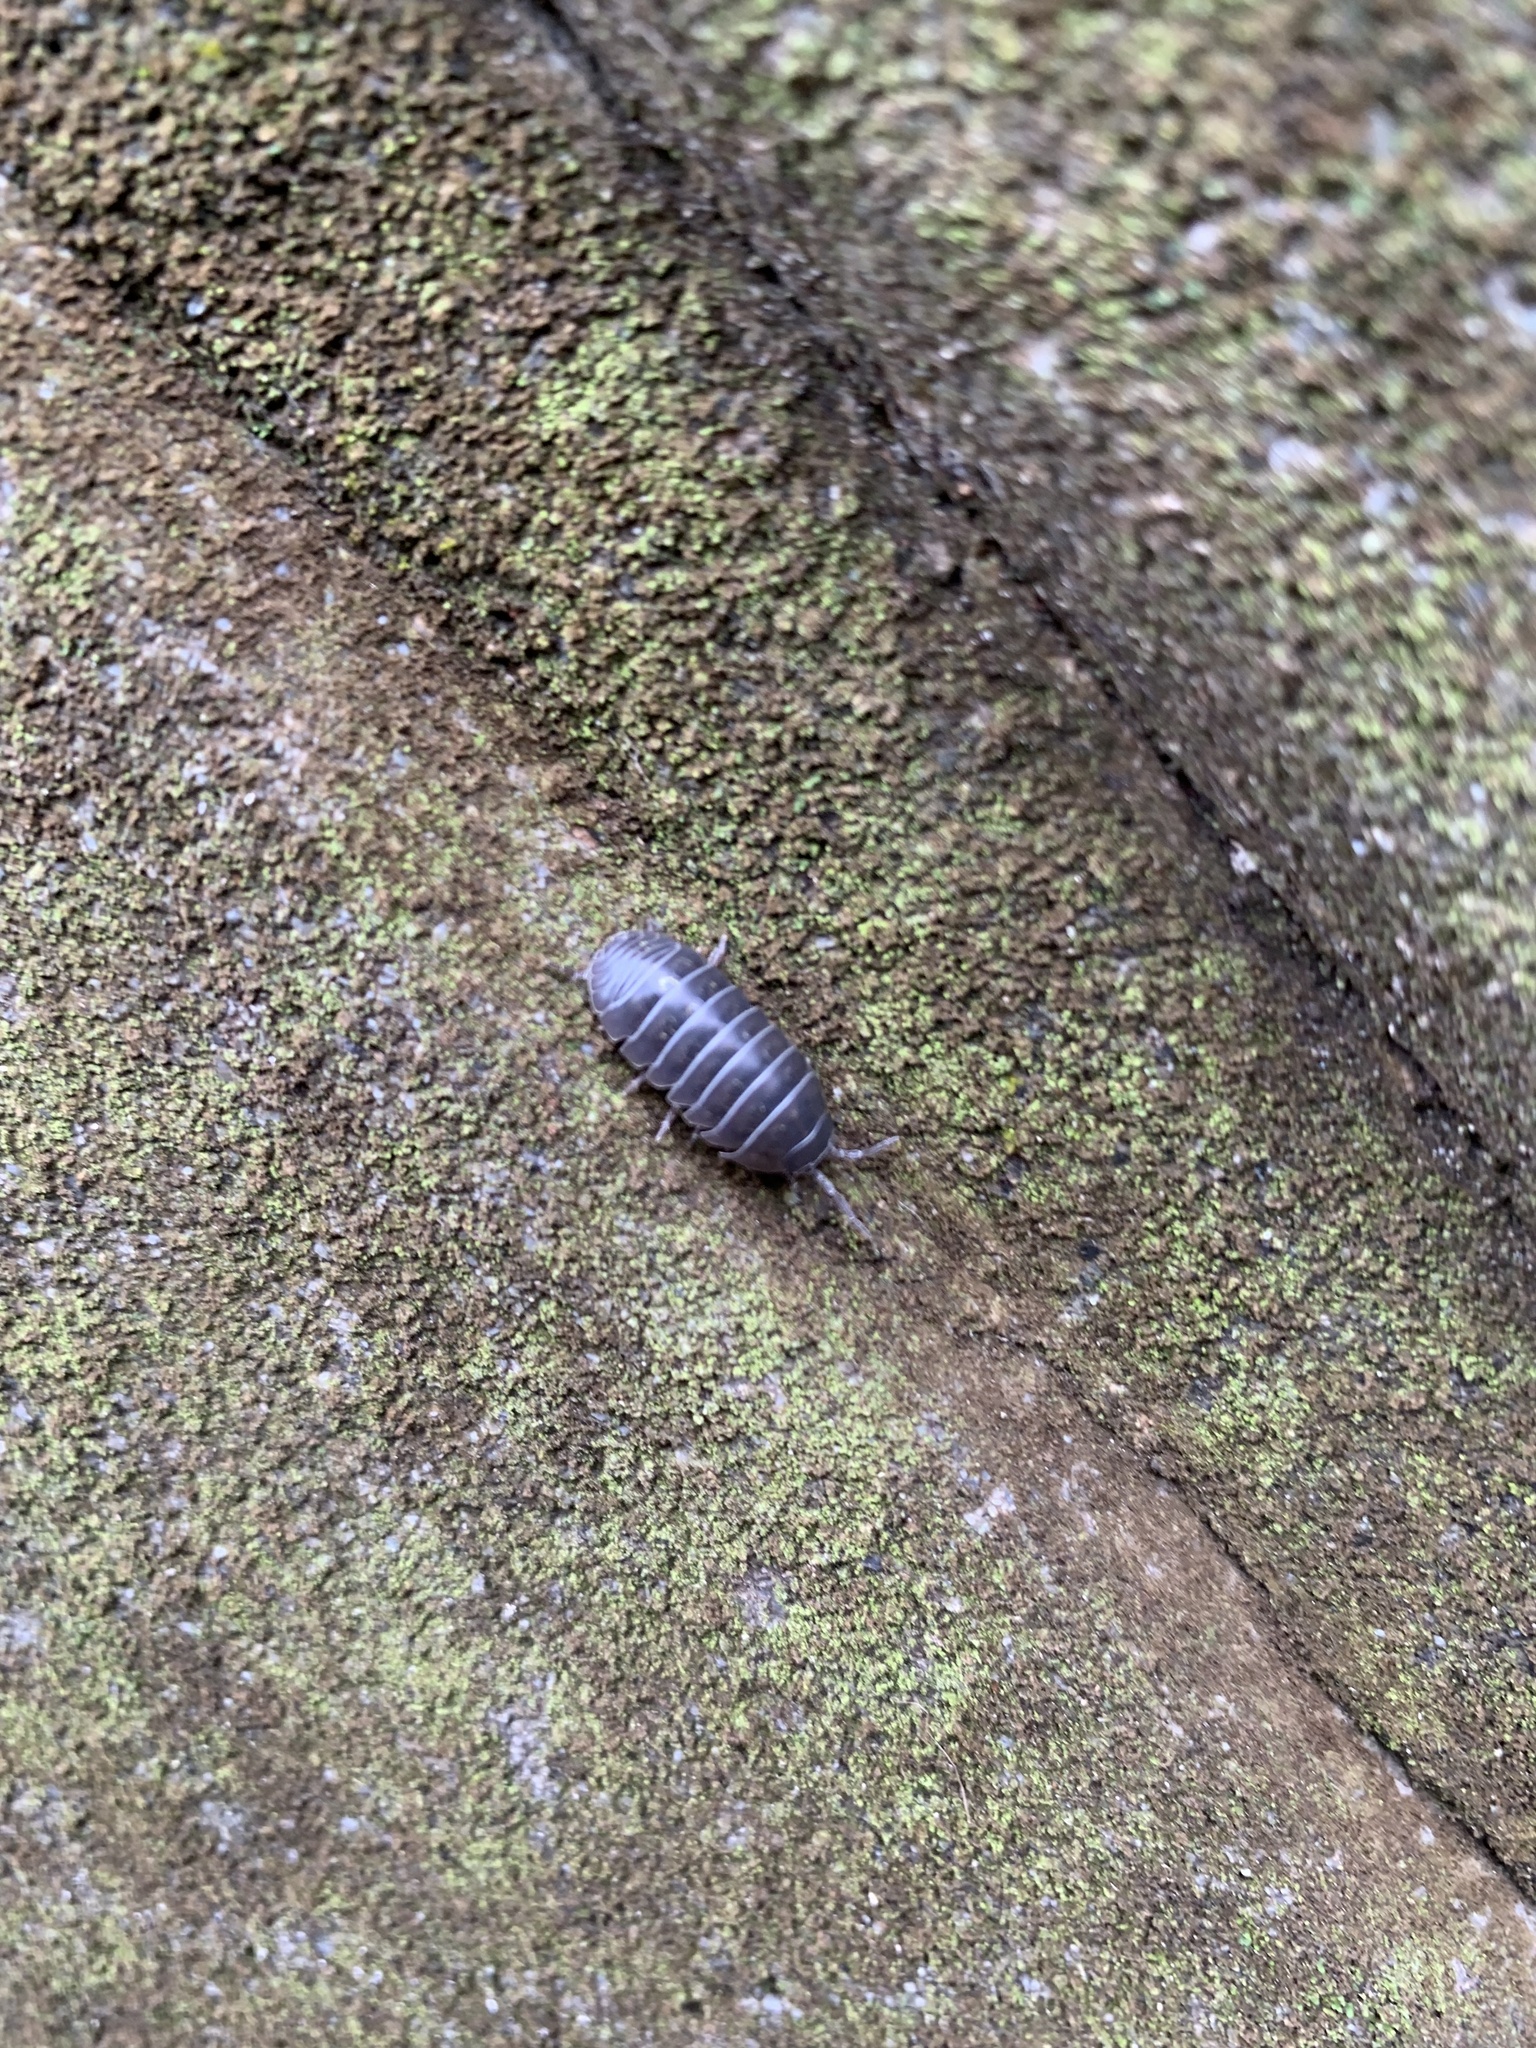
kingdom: Animalia
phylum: Arthropoda
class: Malacostraca
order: Isopoda
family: Armadillidiidae
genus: Armadillidium
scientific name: Armadillidium vulgare
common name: Common pill woodlouse
